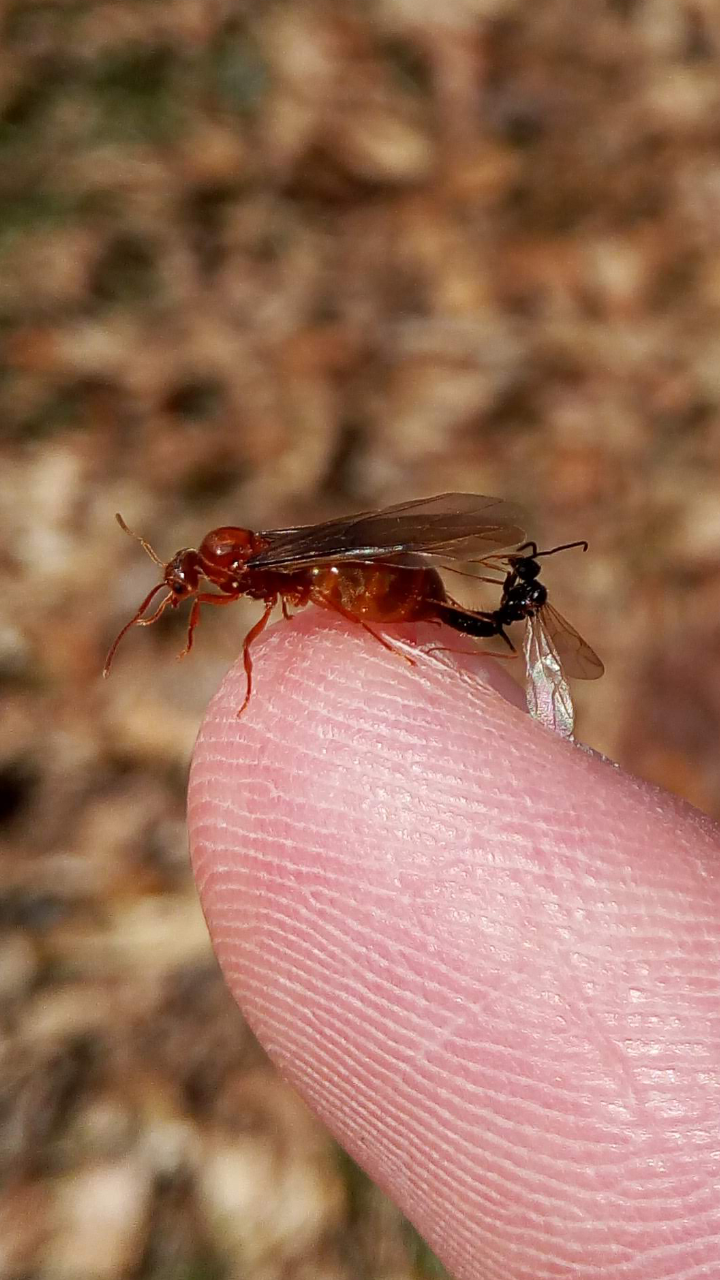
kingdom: Animalia
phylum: Arthropoda
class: Insecta
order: Hymenoptera
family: Formicidae
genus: Prenolepis
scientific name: Prenolepis imparis
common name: Small honey ant
